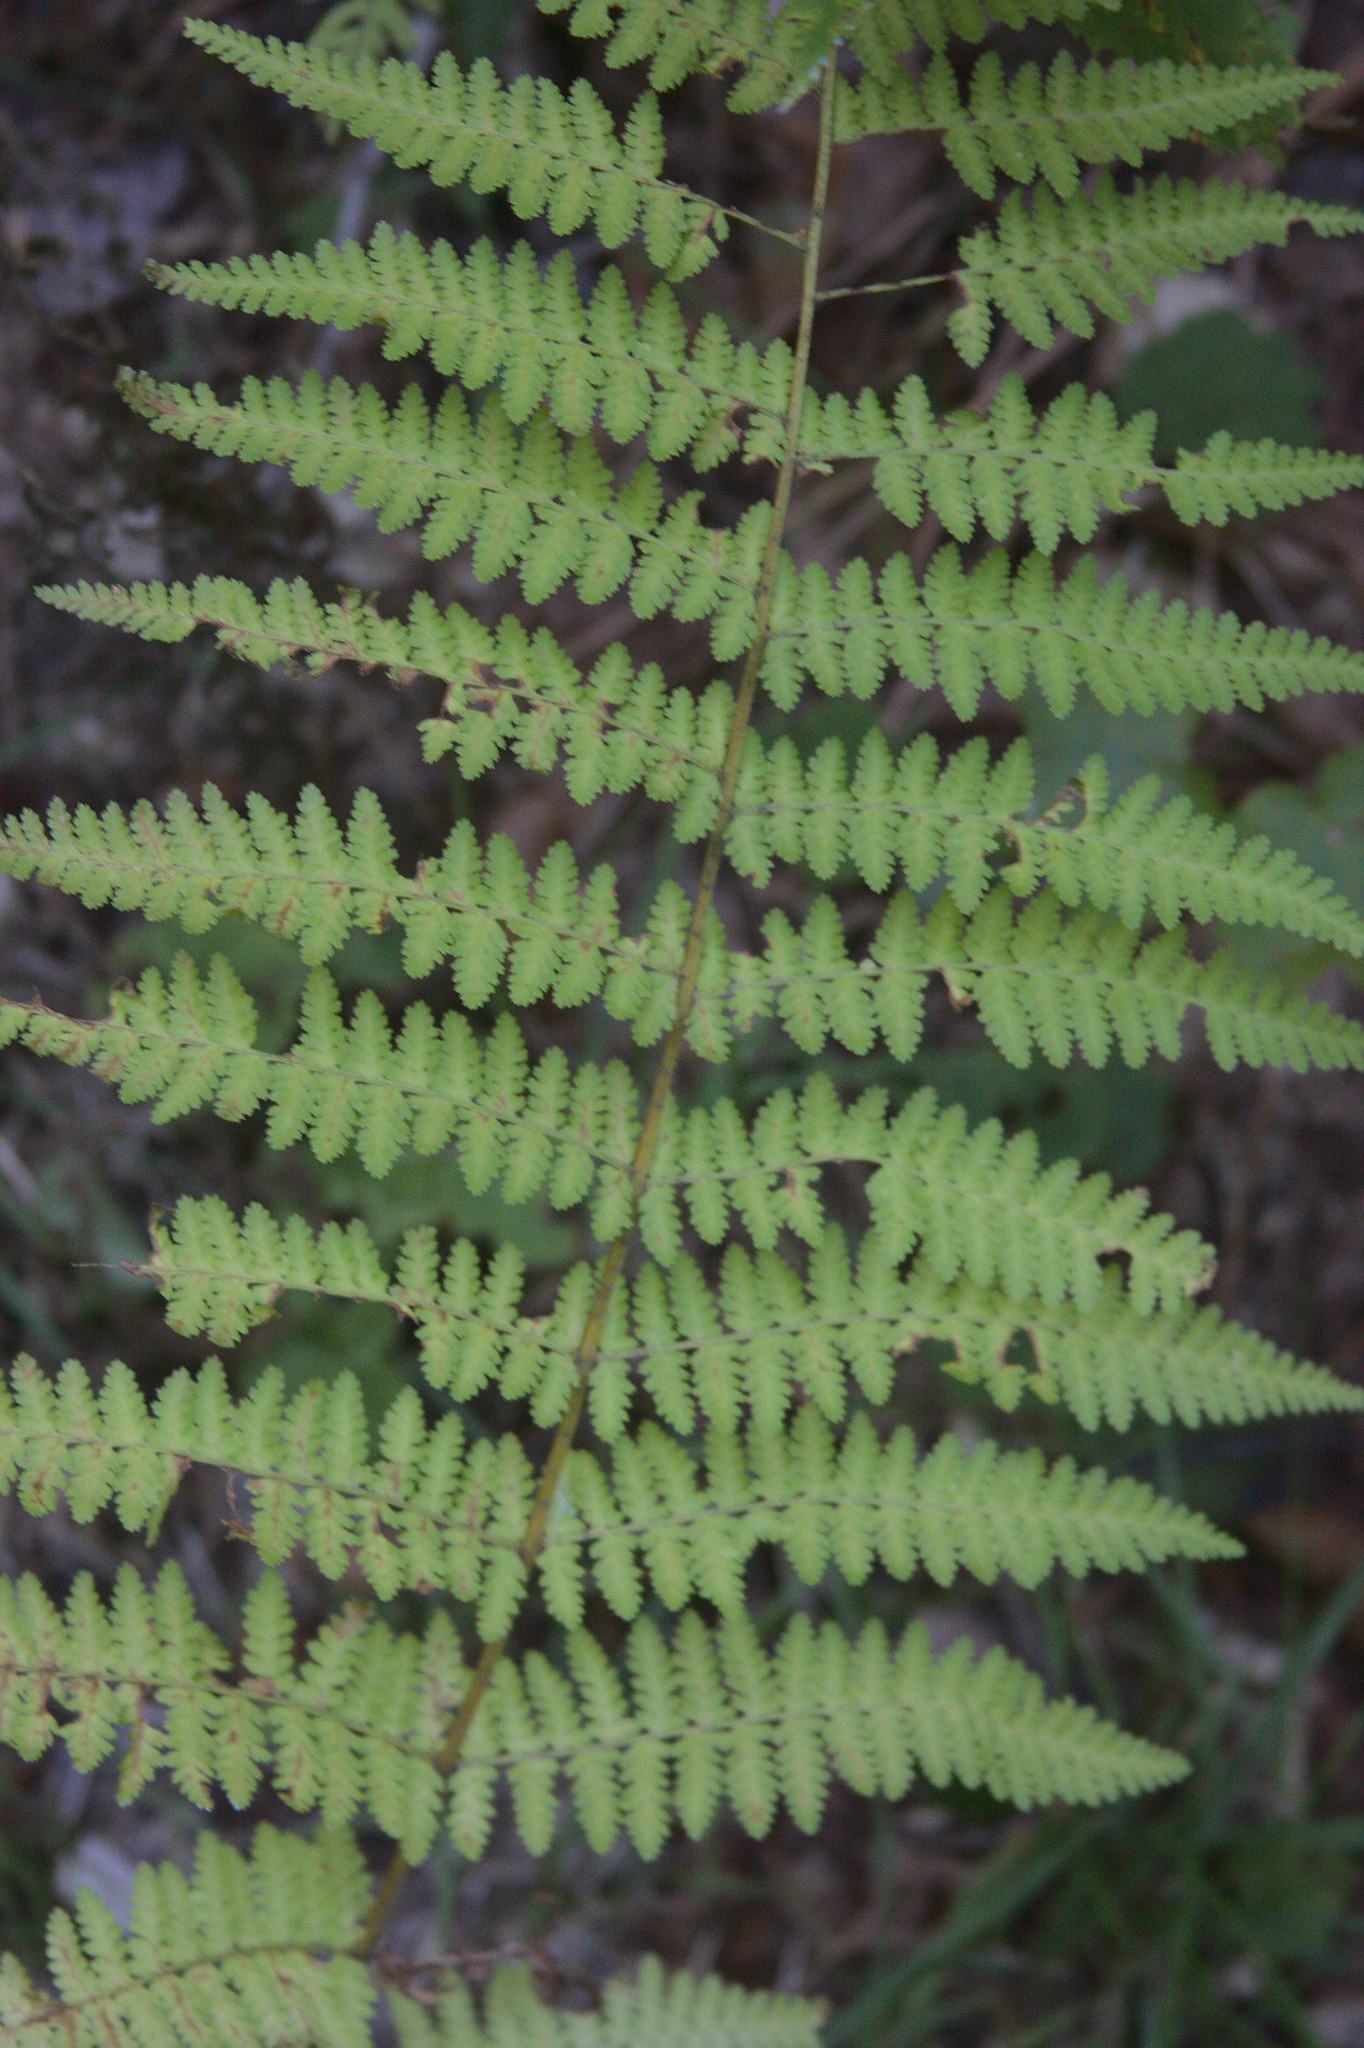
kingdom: Plantae
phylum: Tracheophyta
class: Polypodiopsida
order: Polypodiales
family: Dennstaedtiaceae
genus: Sitobolium
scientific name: Sitobolium punctilobum
